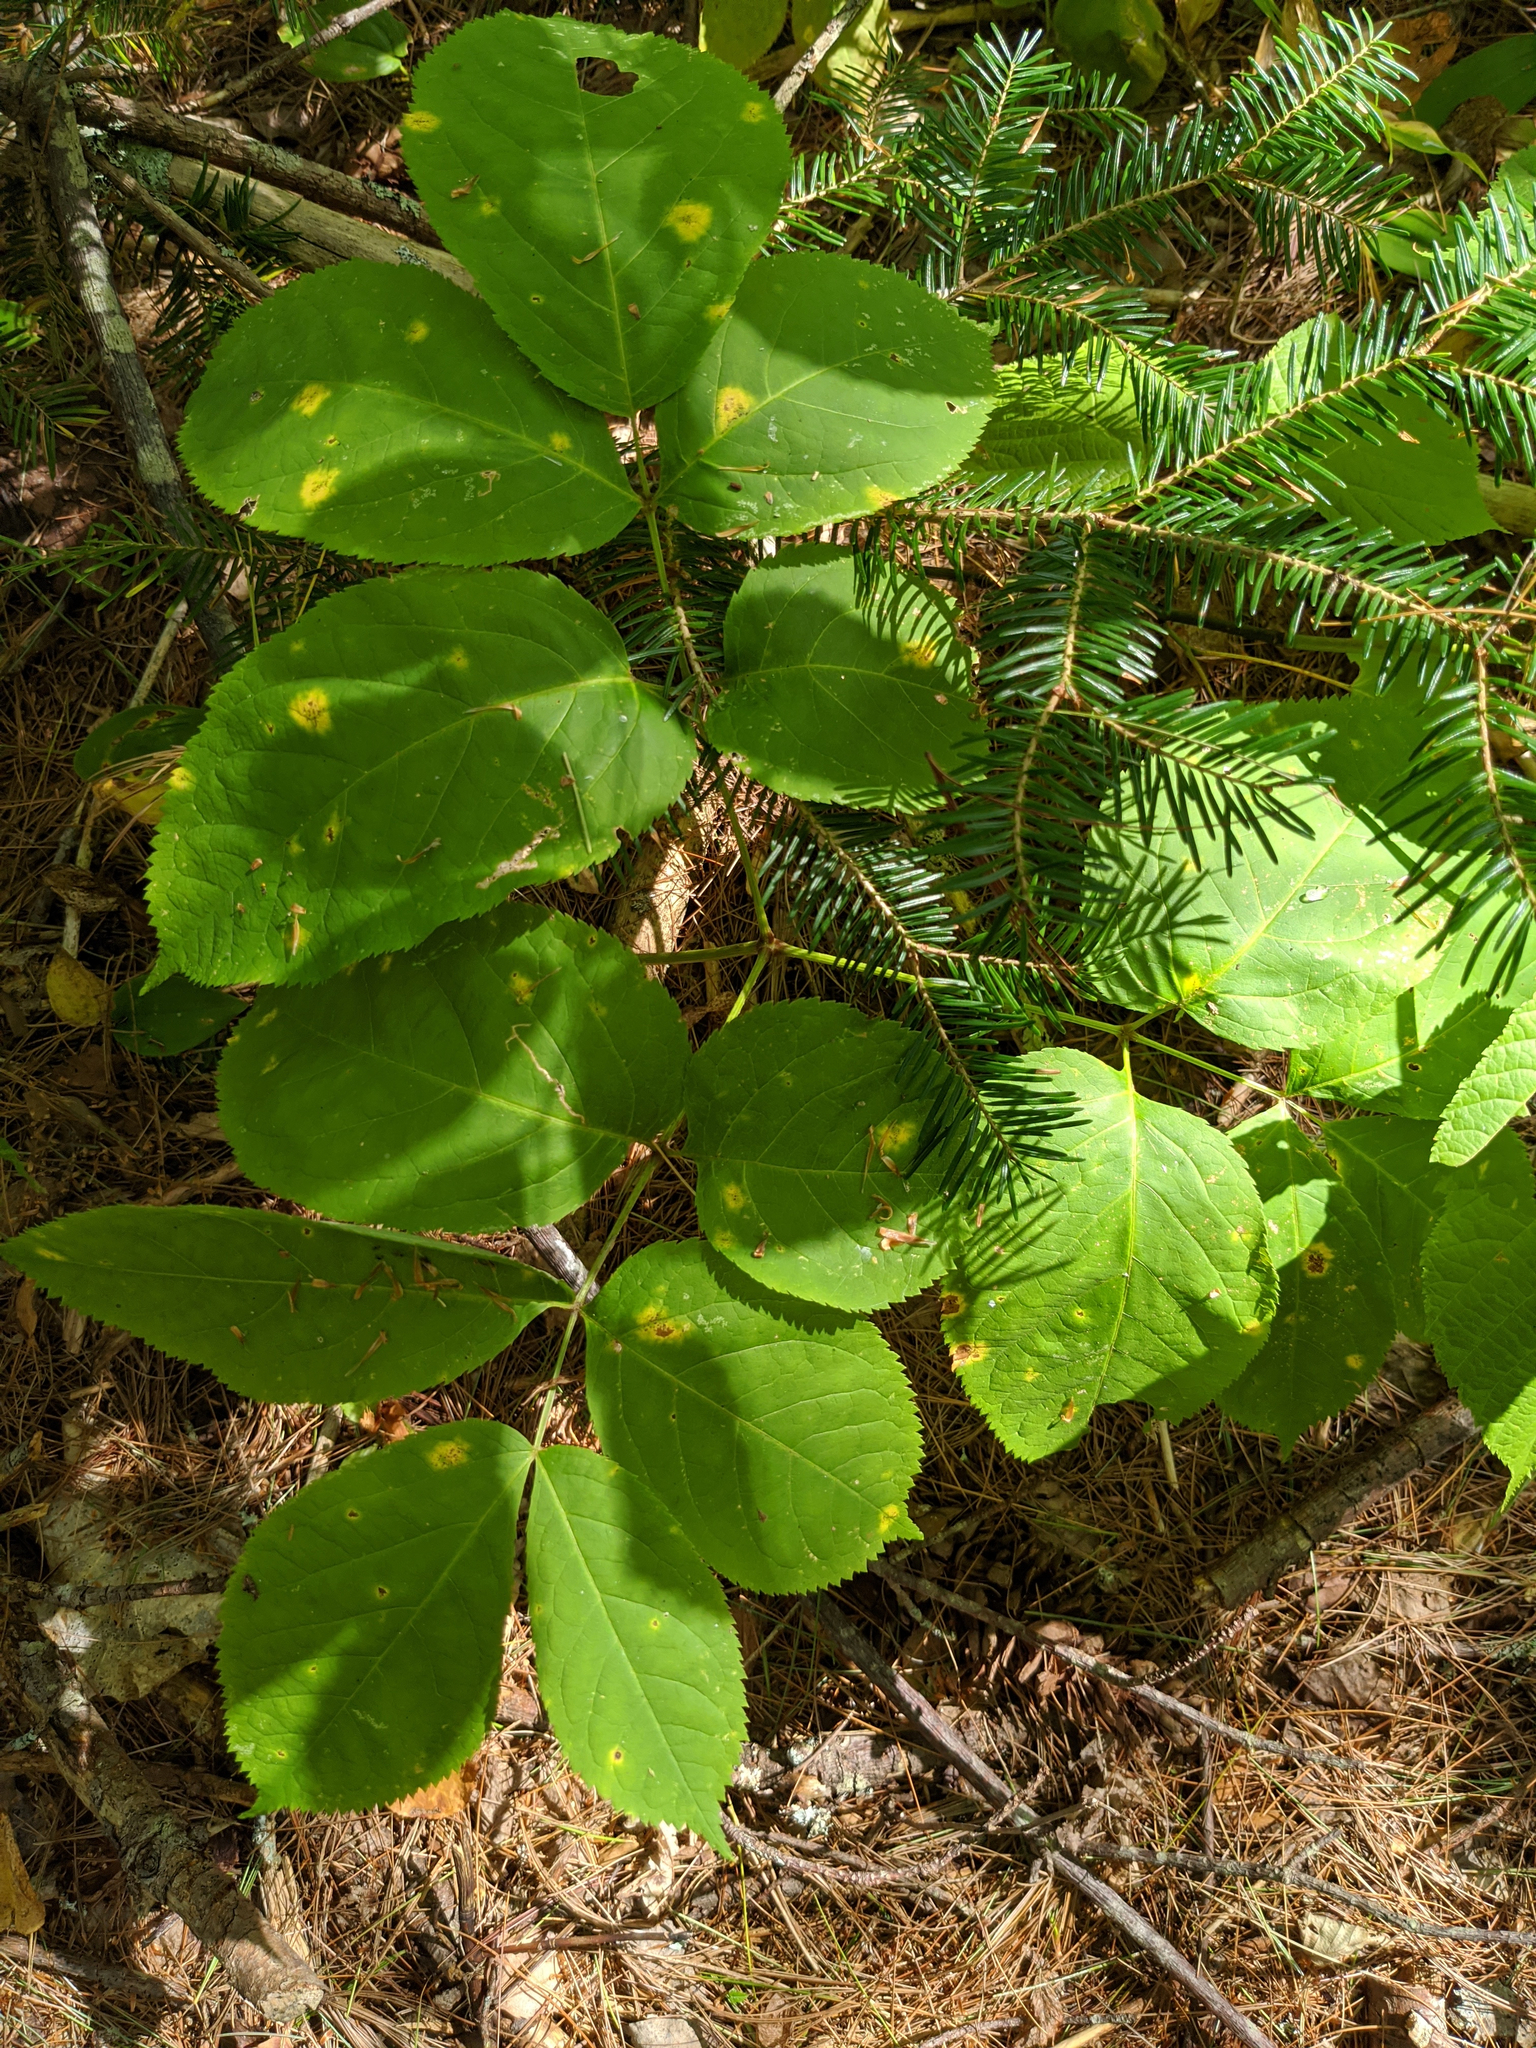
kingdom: Plantae
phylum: Tracheophyta
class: Pinopsida
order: Pinales
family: Pinaceae
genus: Abies
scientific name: Abies balsamea
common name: Balsam fir
